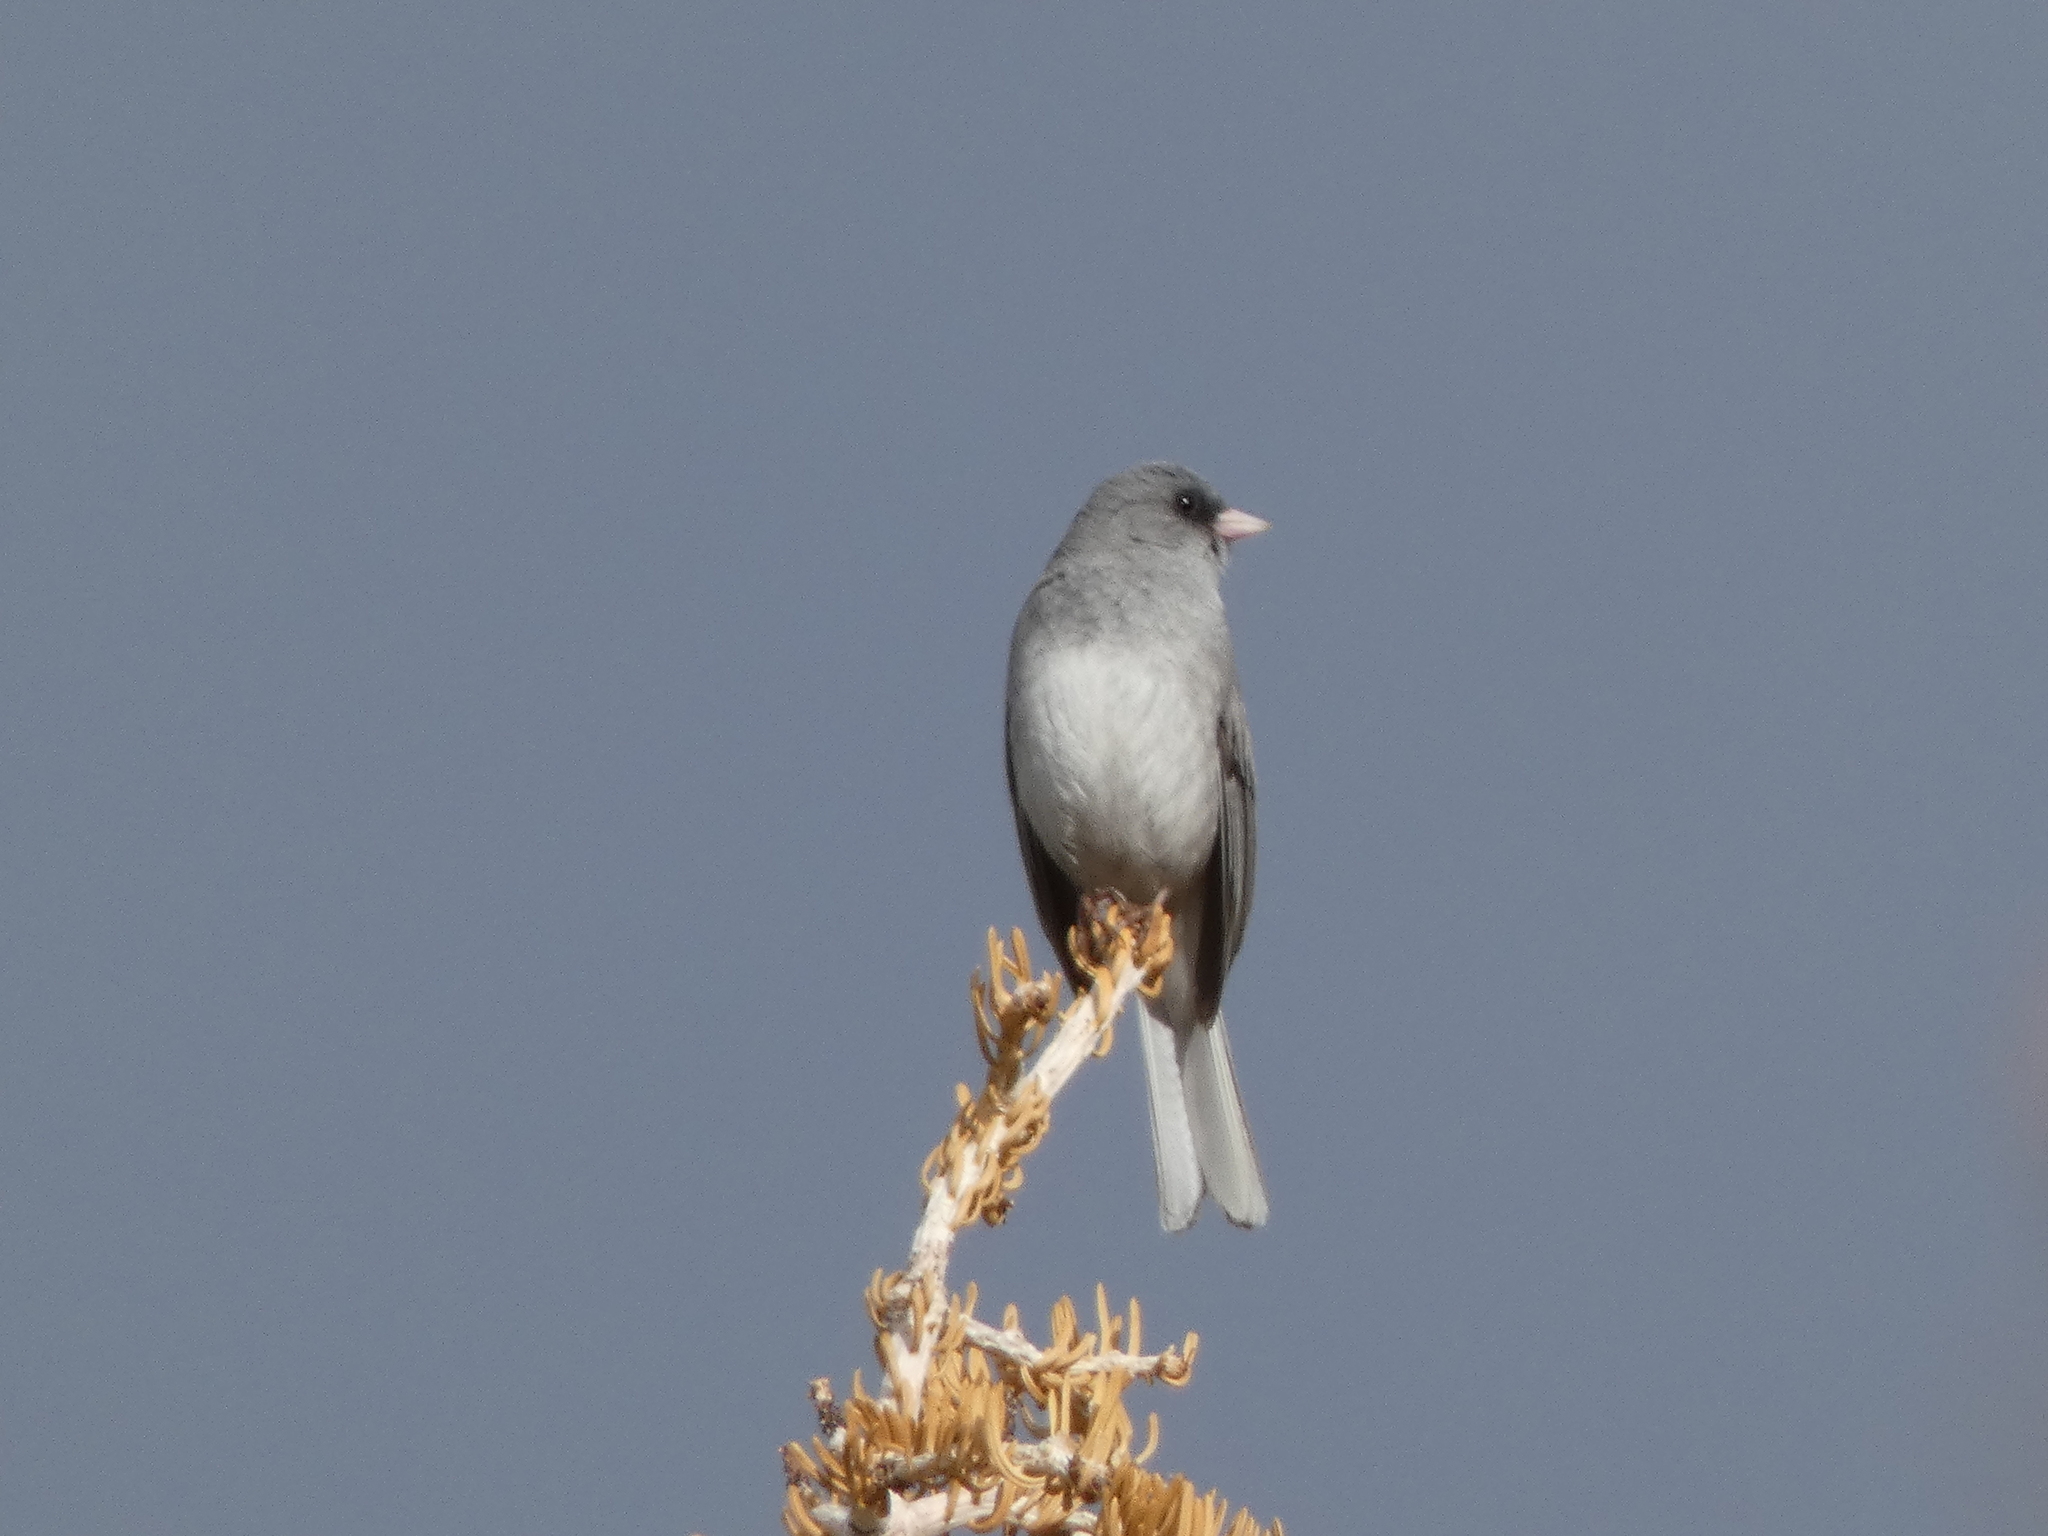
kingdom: Animalia
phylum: Chordata
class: Aves
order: Passeriformes
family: Passerellidae
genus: Junco
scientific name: Junco hyemalis
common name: Dark-eyed junco
